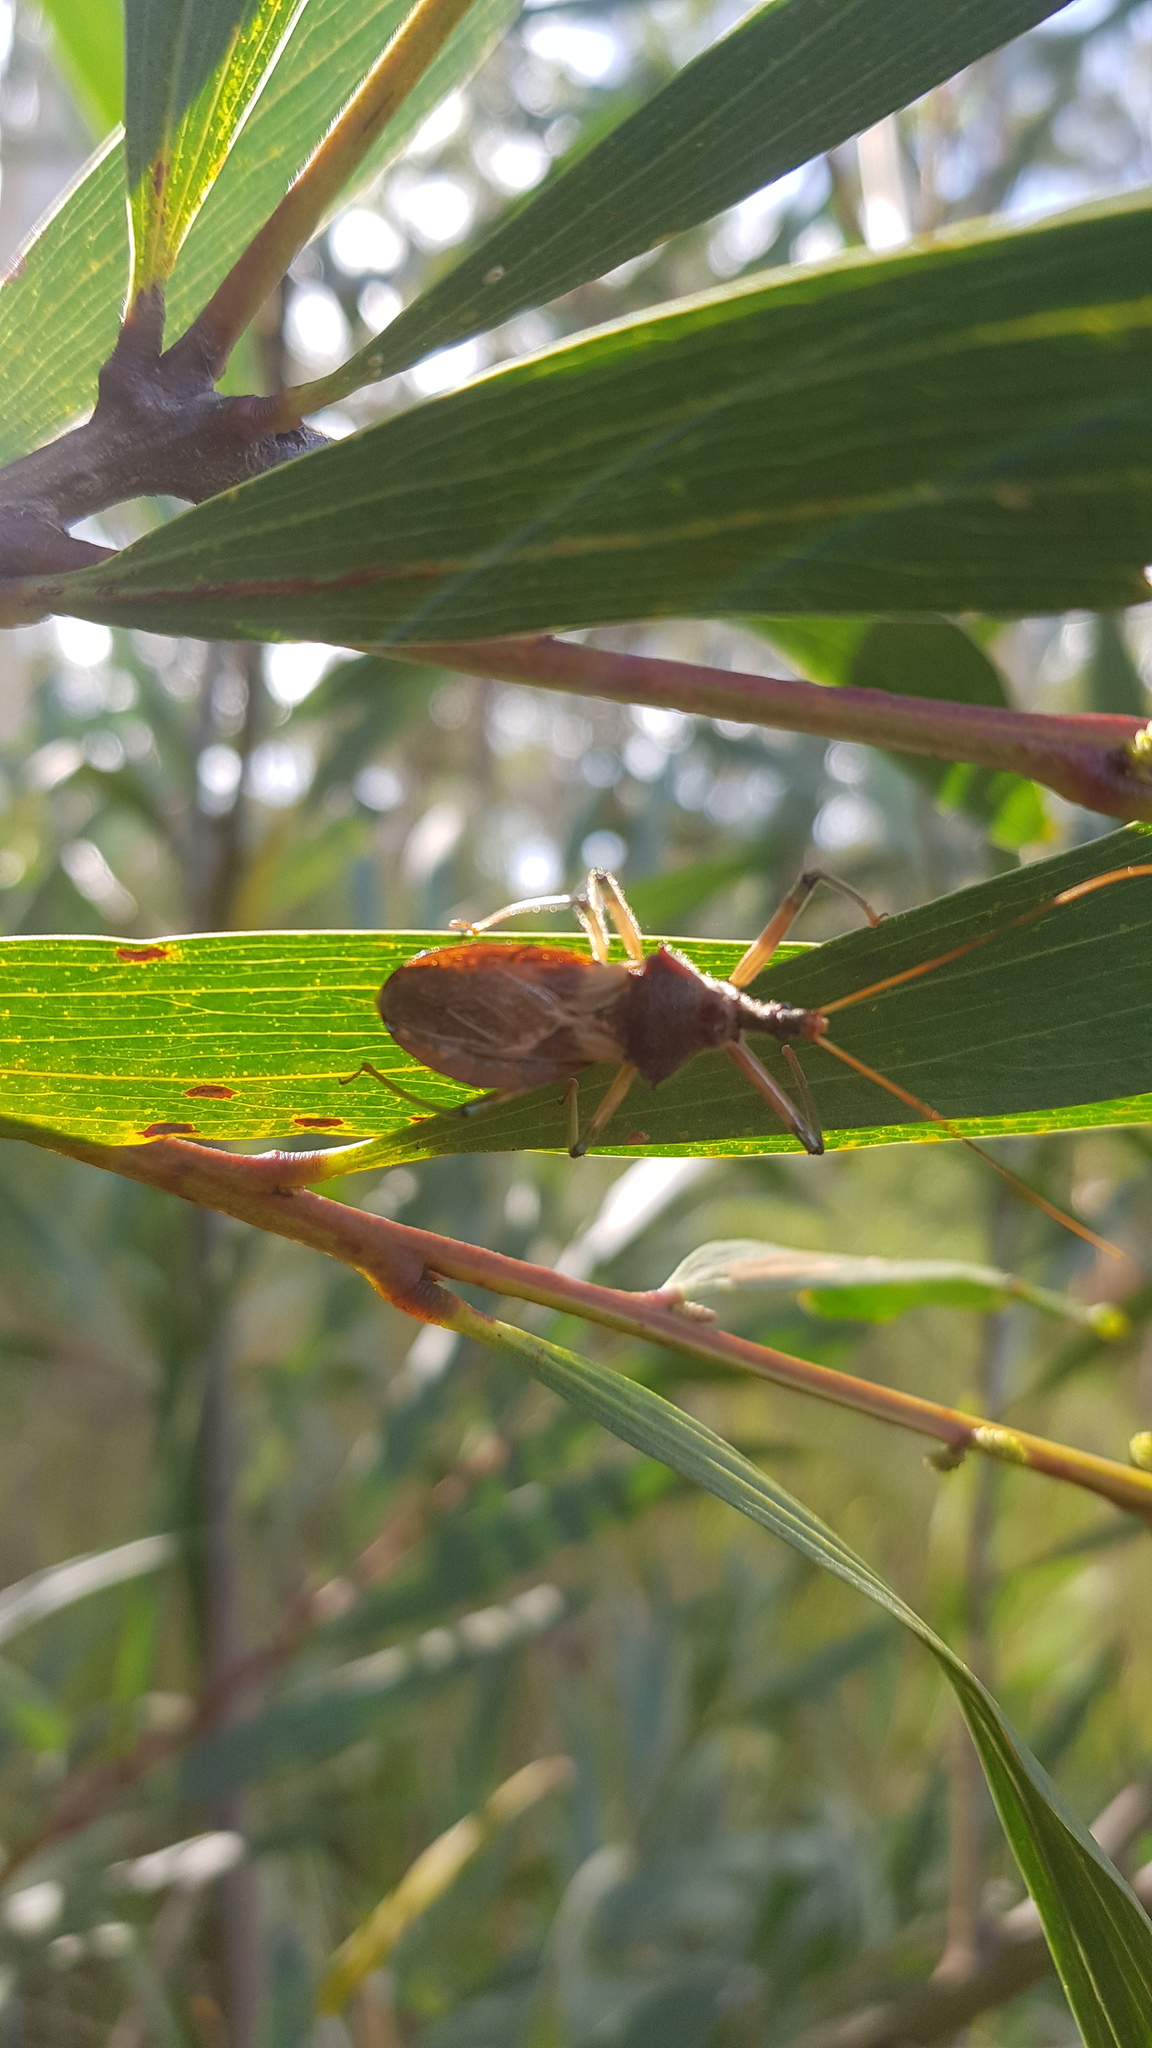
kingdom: Animalia
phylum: Arthropoda
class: Insecta
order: Hemiptera
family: Reduviidae
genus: Pristhesancus
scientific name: Pristhesancus plagipennis
